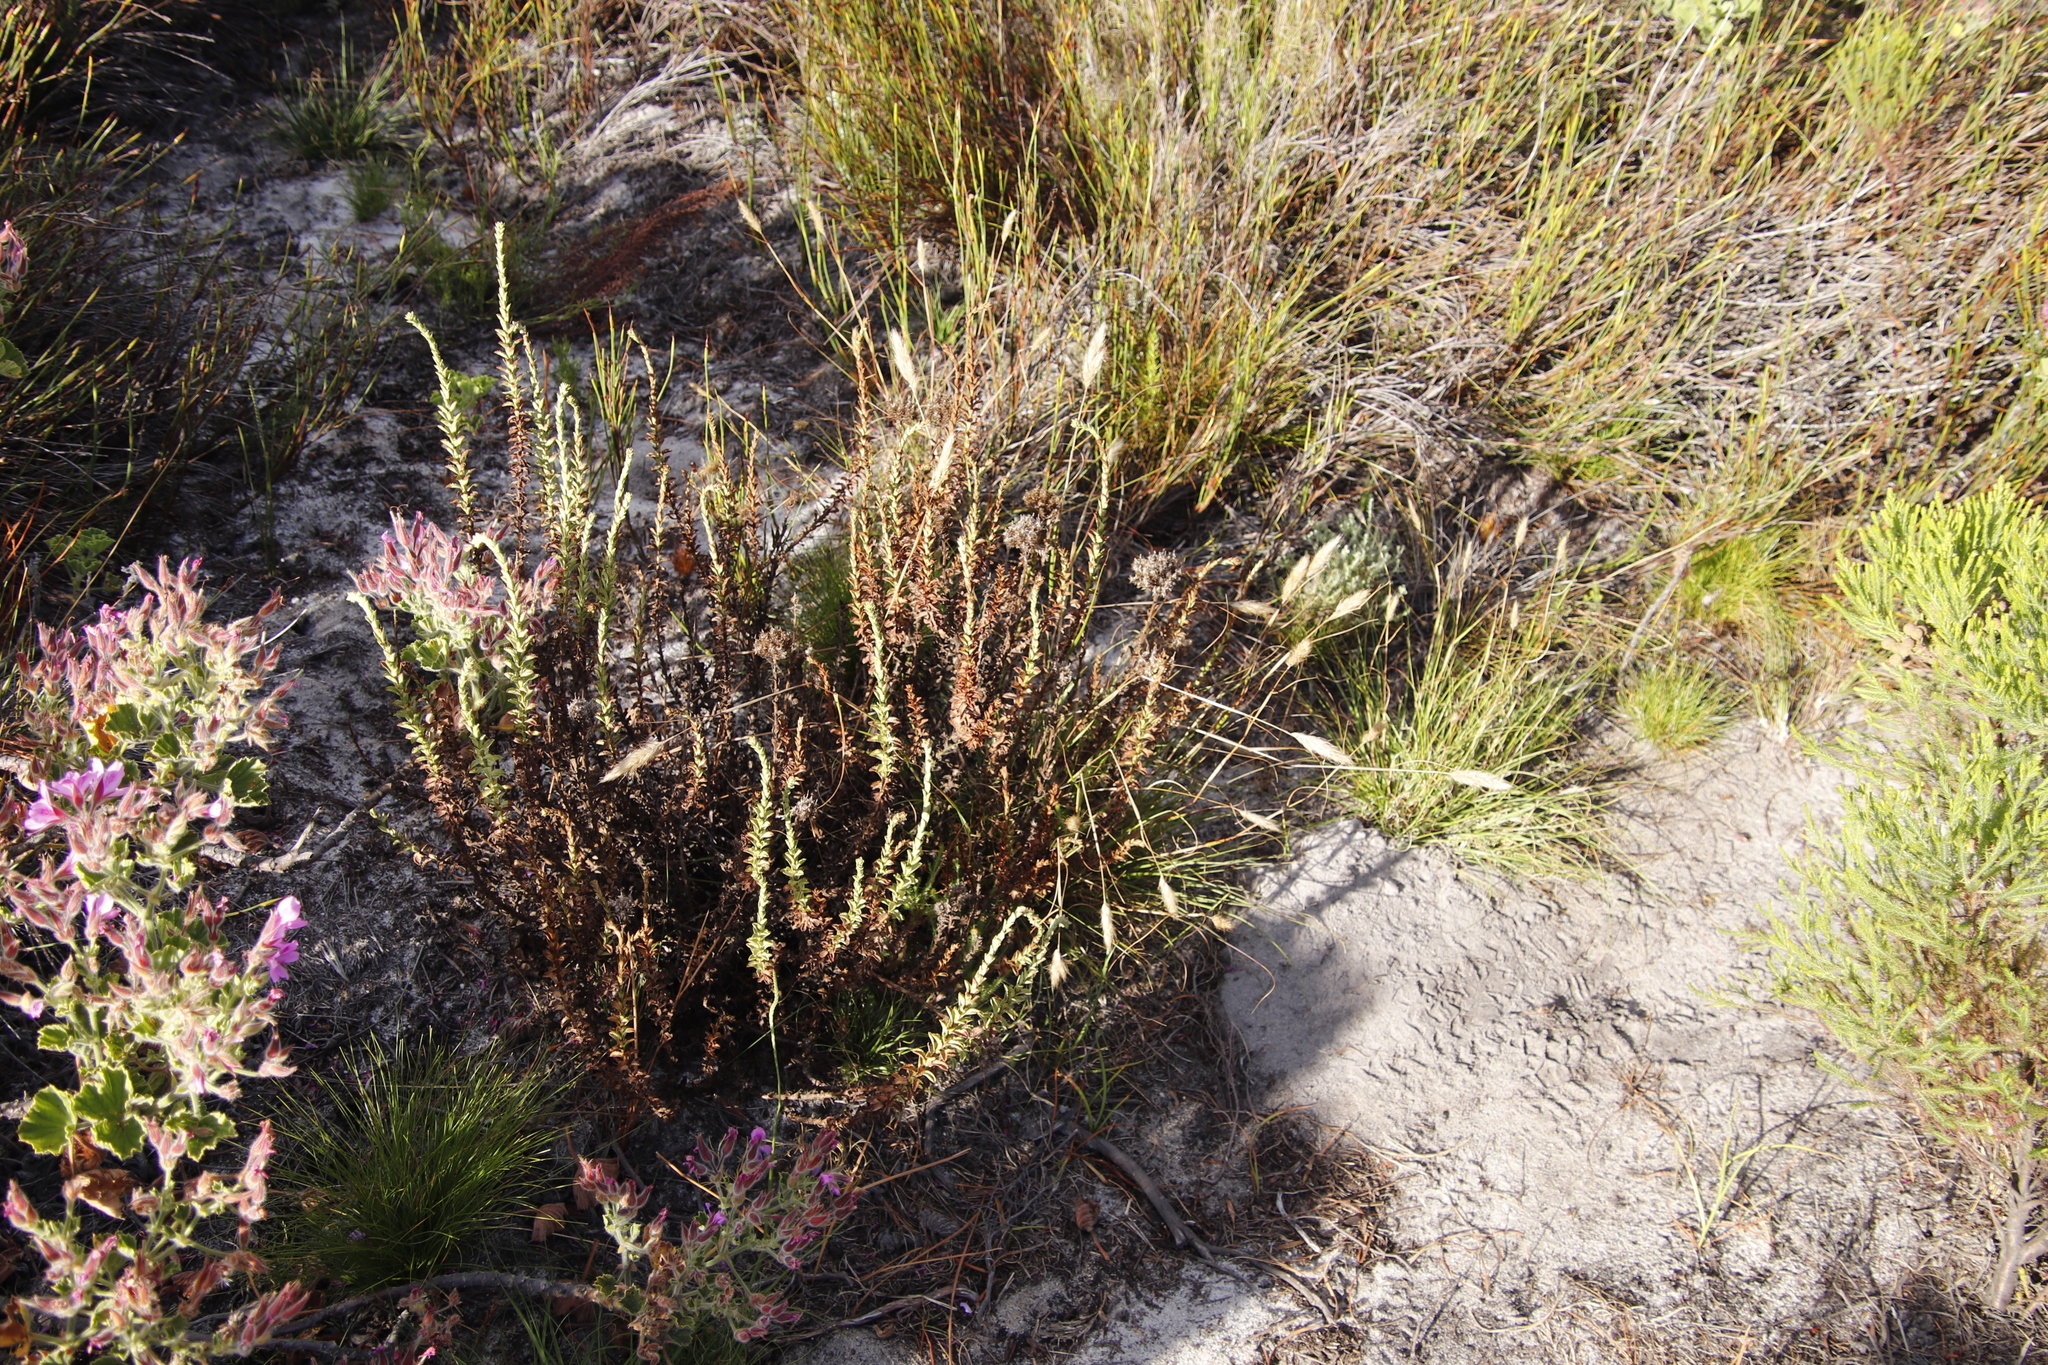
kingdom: Plantae
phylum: Tracheophyta
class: Magnoliopsida
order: Lamiales
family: Scrophulariaceae
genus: Pseudoselago
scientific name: Pseudoselago serrata
